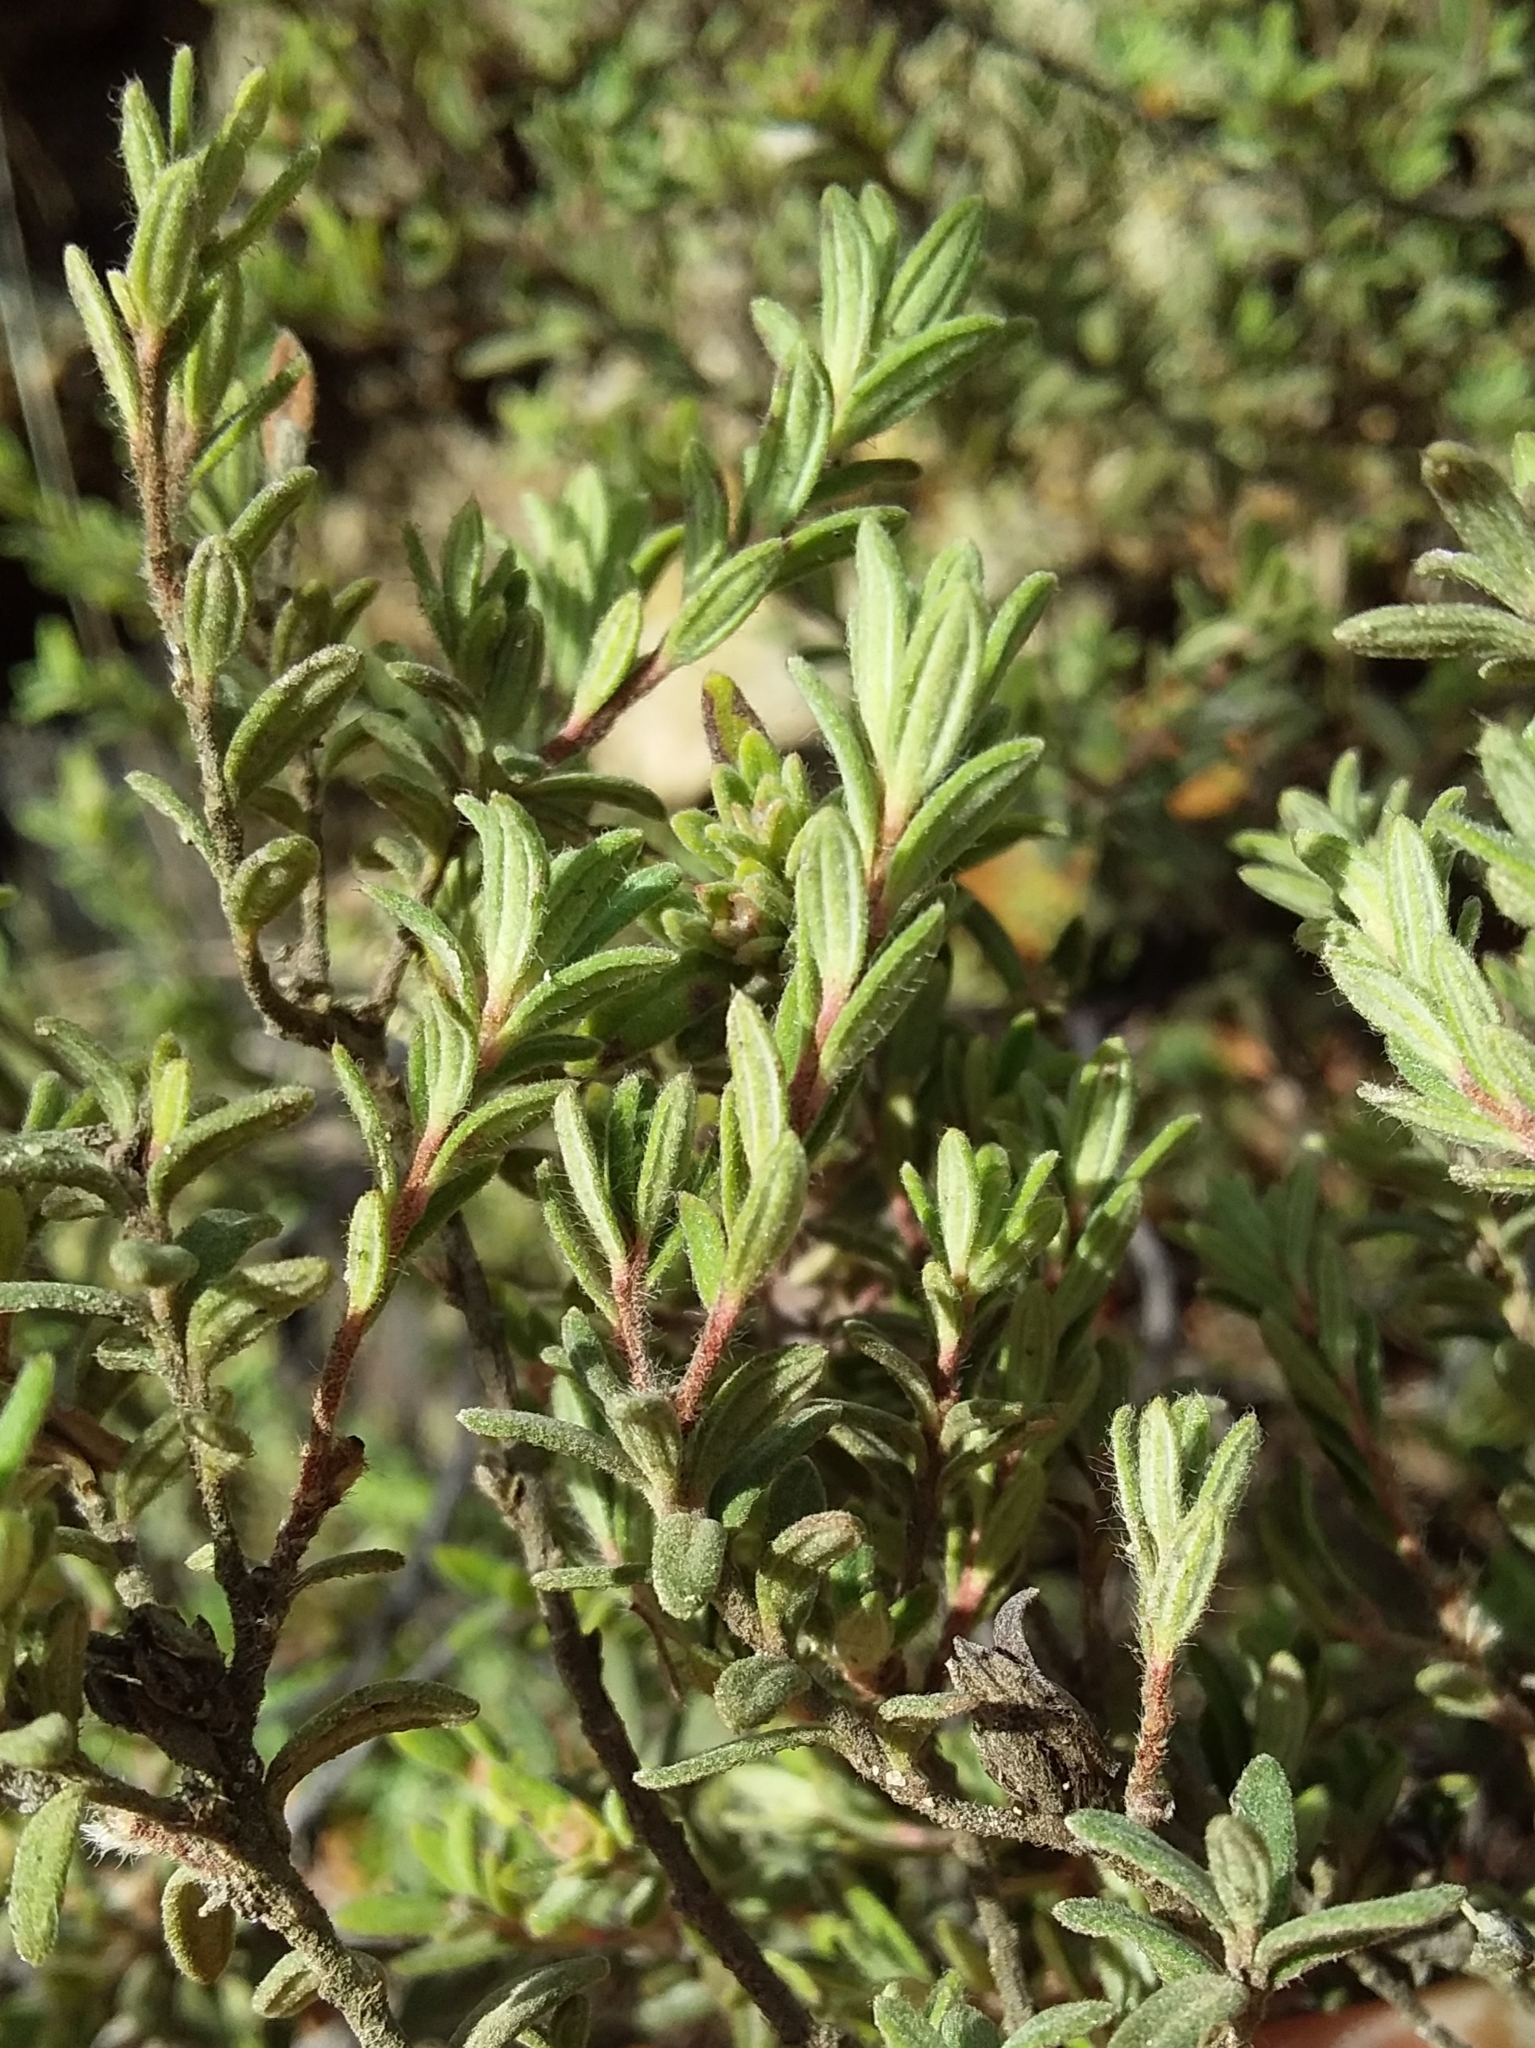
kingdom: Plantae
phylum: Tracheophyta
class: Magnoliopsida
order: Dilleniales
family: Dilleniaceae
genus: Hibbertia
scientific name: Hibbertia crinita
